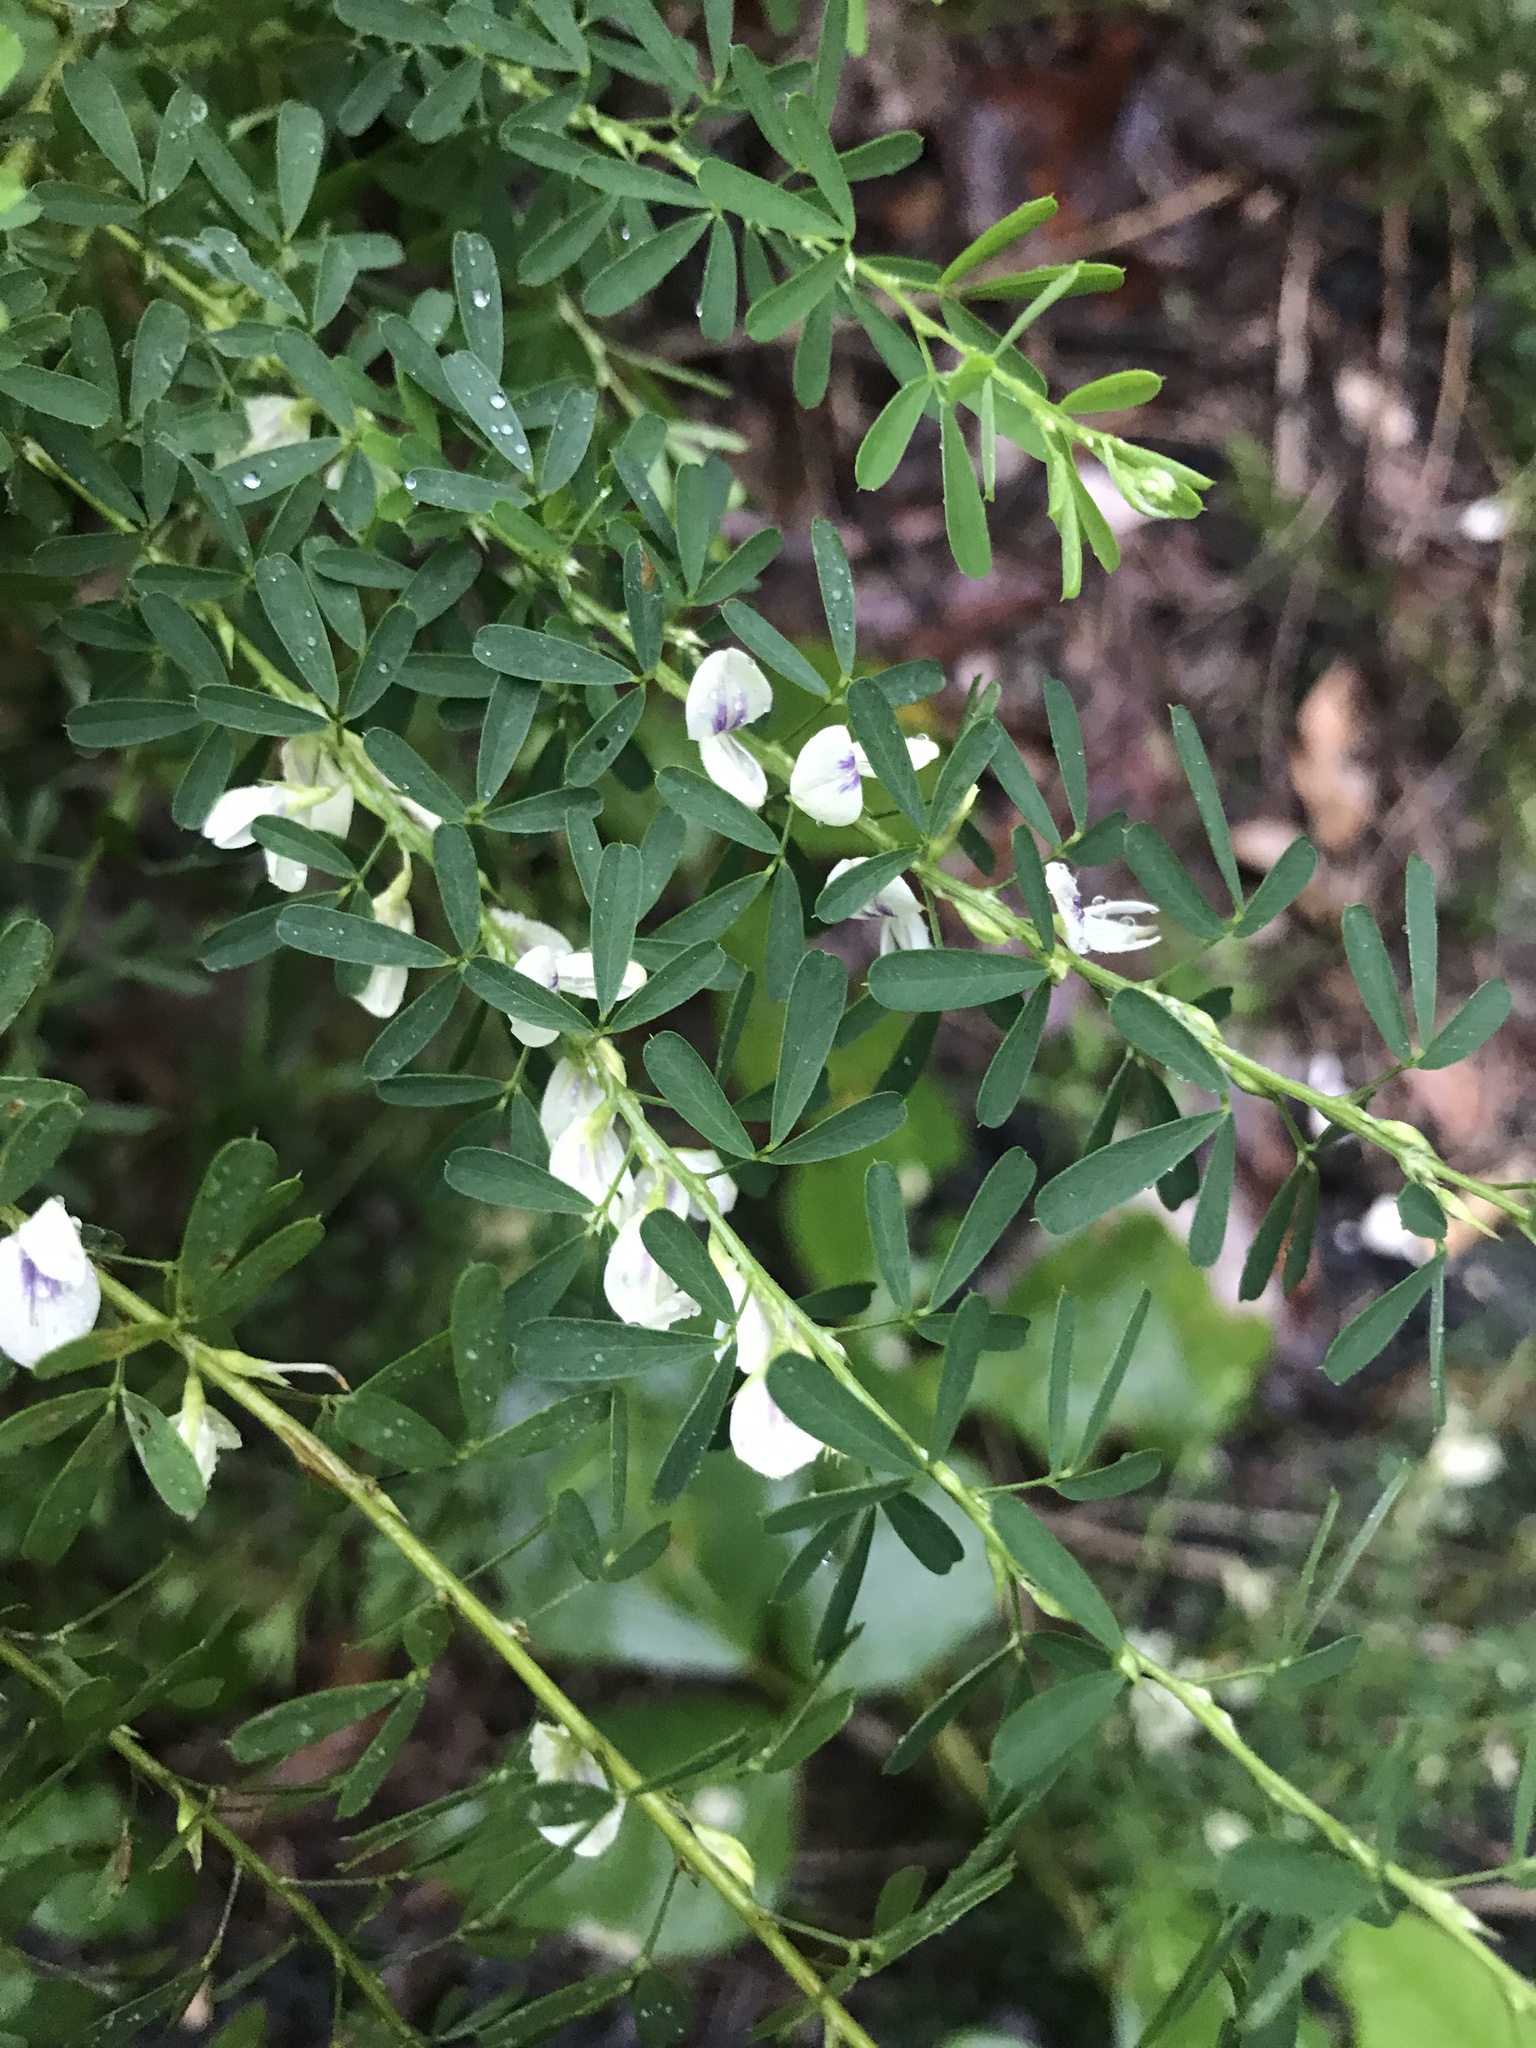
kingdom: Plantae
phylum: Tracheophyta
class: Magnoliopsida
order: Fabales
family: Fabaceae
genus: Lespedeza
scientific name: Lespedeza cuneata
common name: Chinese bush-clover
